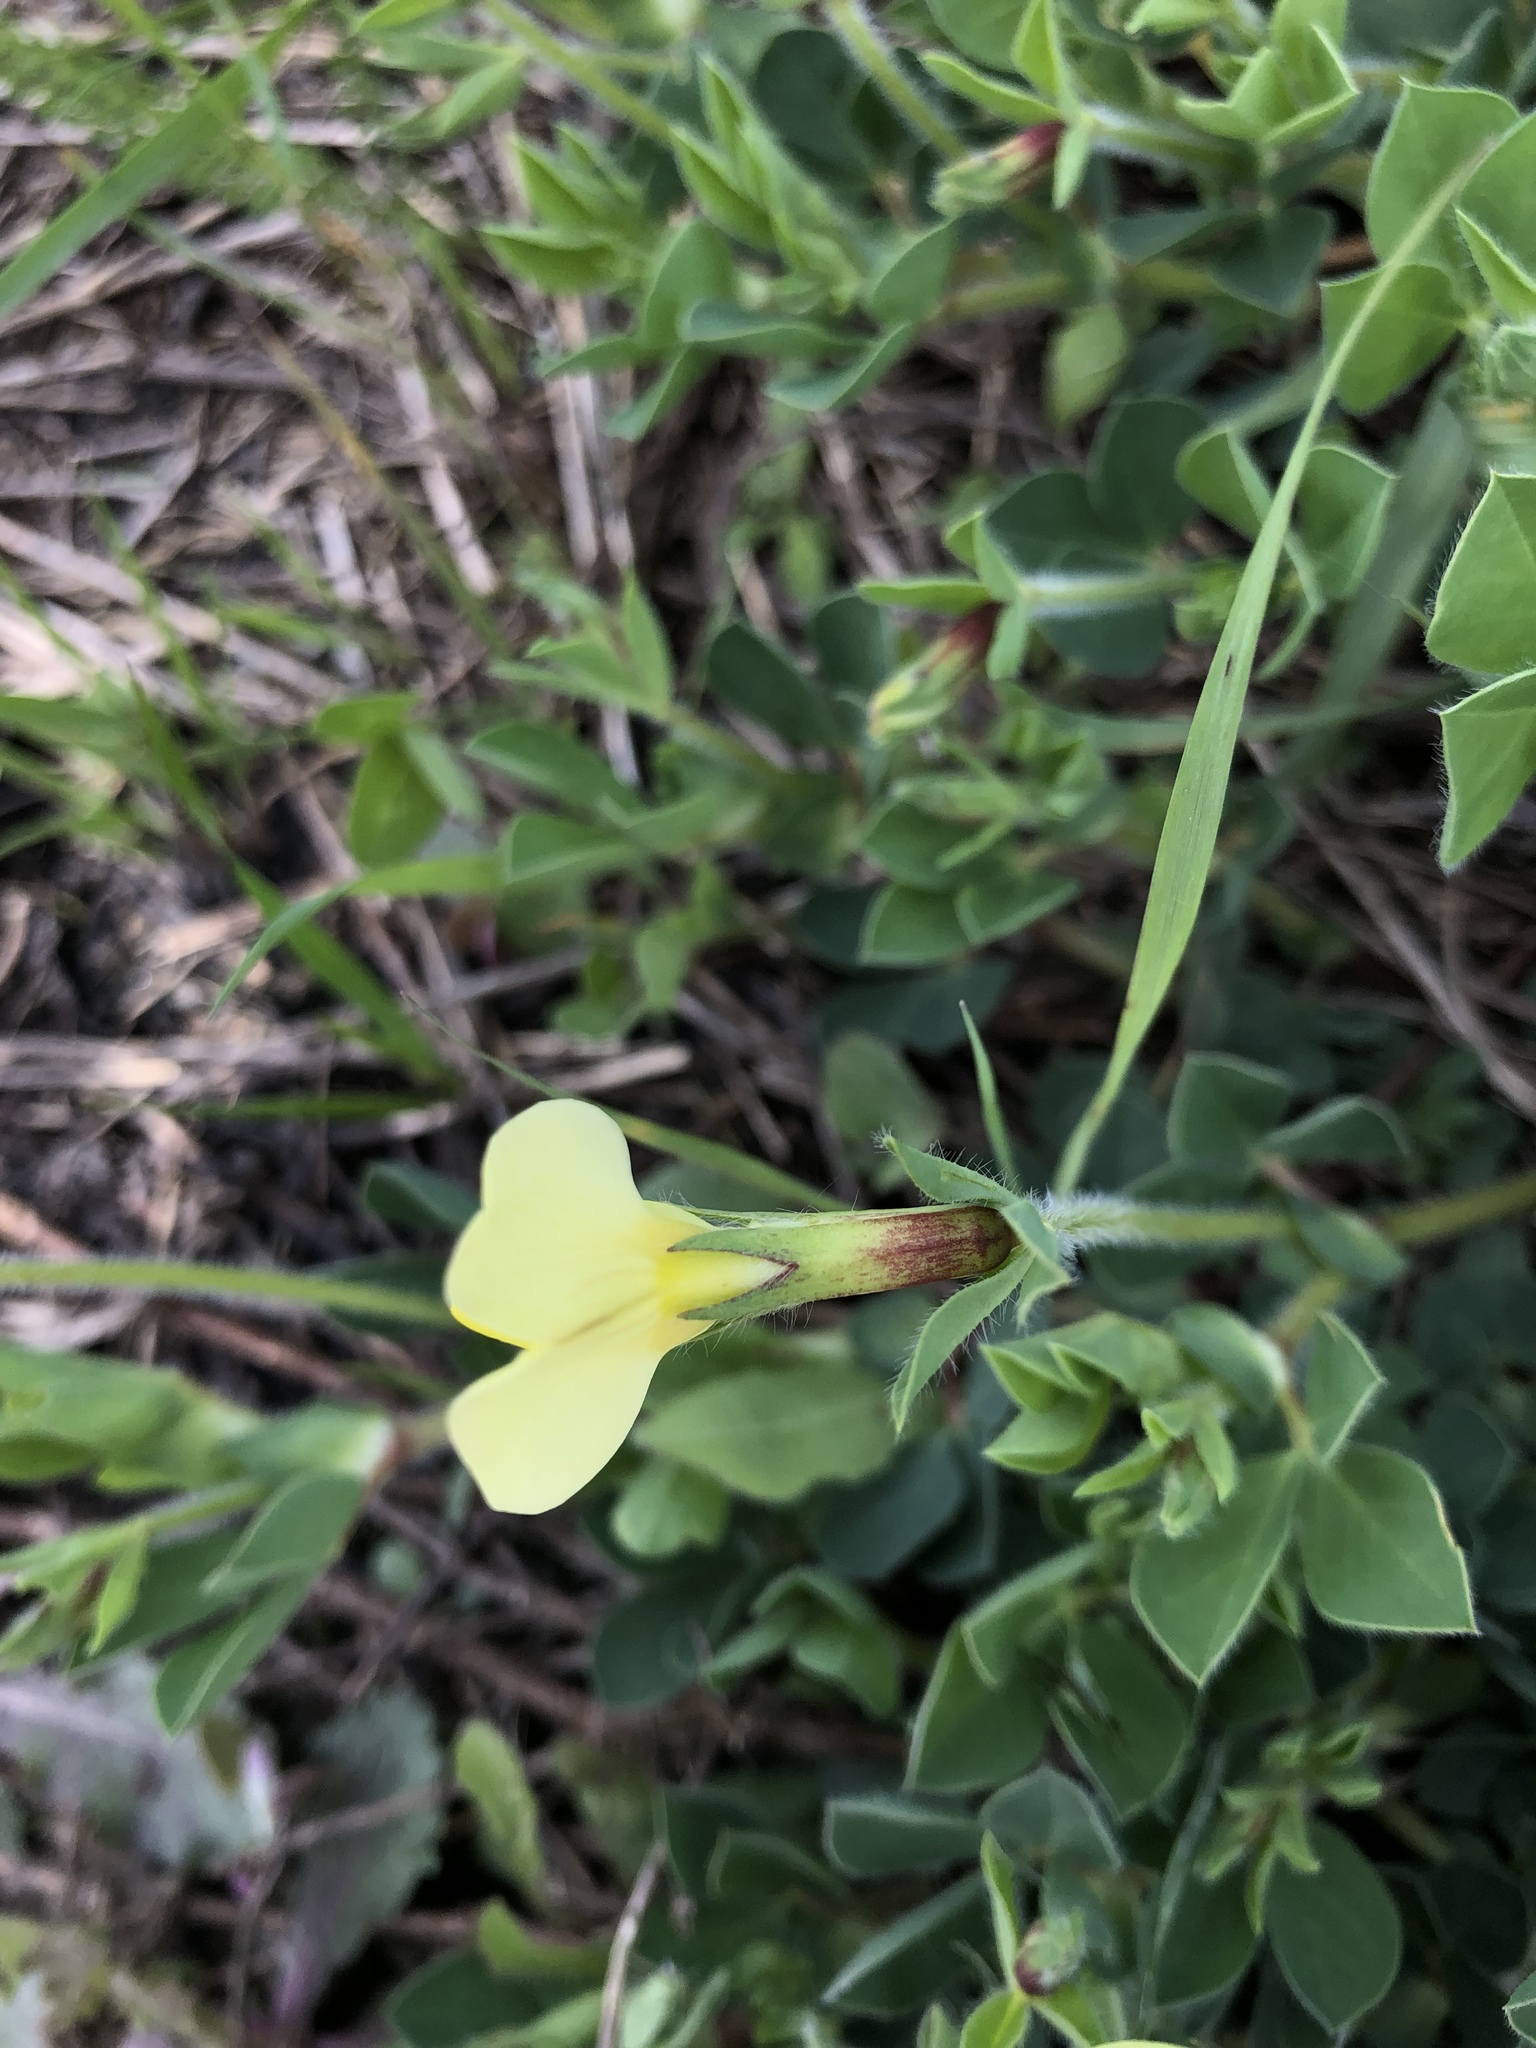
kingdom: Plantae
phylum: Tracheophyta
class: Magnoliopsida
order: Fabales
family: Fabaceae
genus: Lotus
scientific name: Lotus maritimus
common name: Dragon's-teeth
